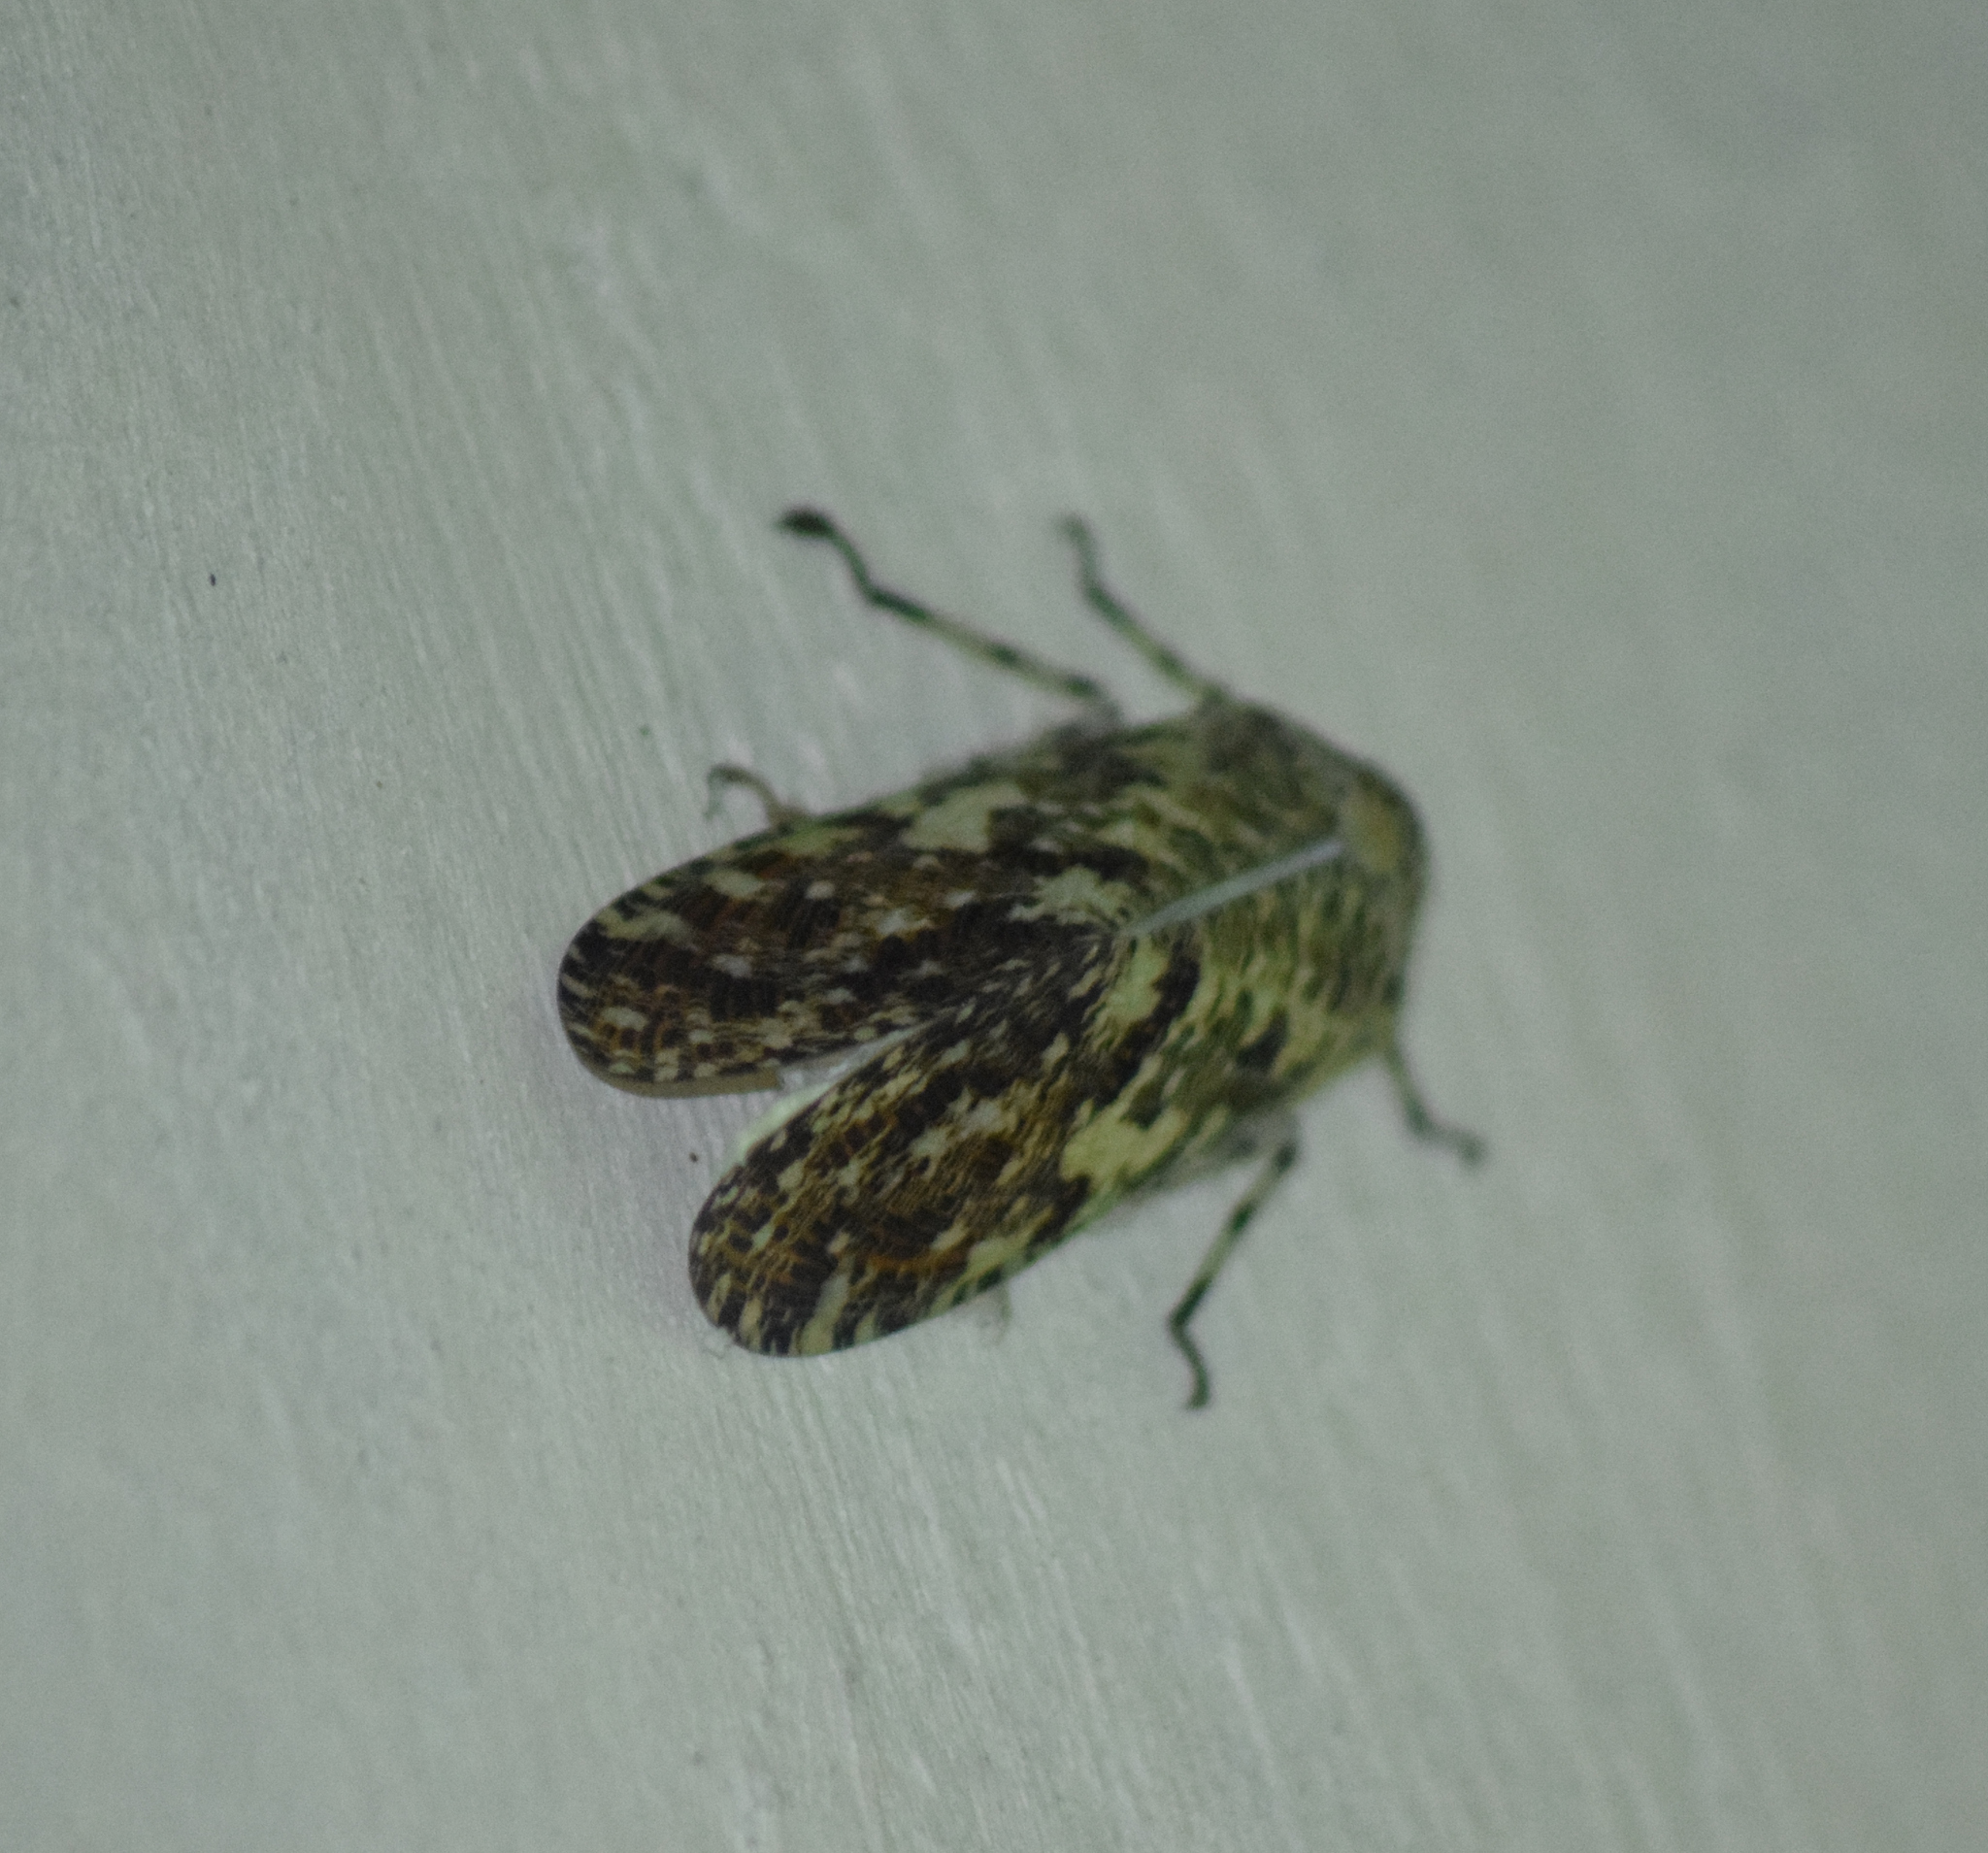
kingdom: Animalia
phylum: Arthropoda
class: Insecta
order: Hemiptera
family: Fulgoridae
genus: Phenax
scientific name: Phenax variegata
